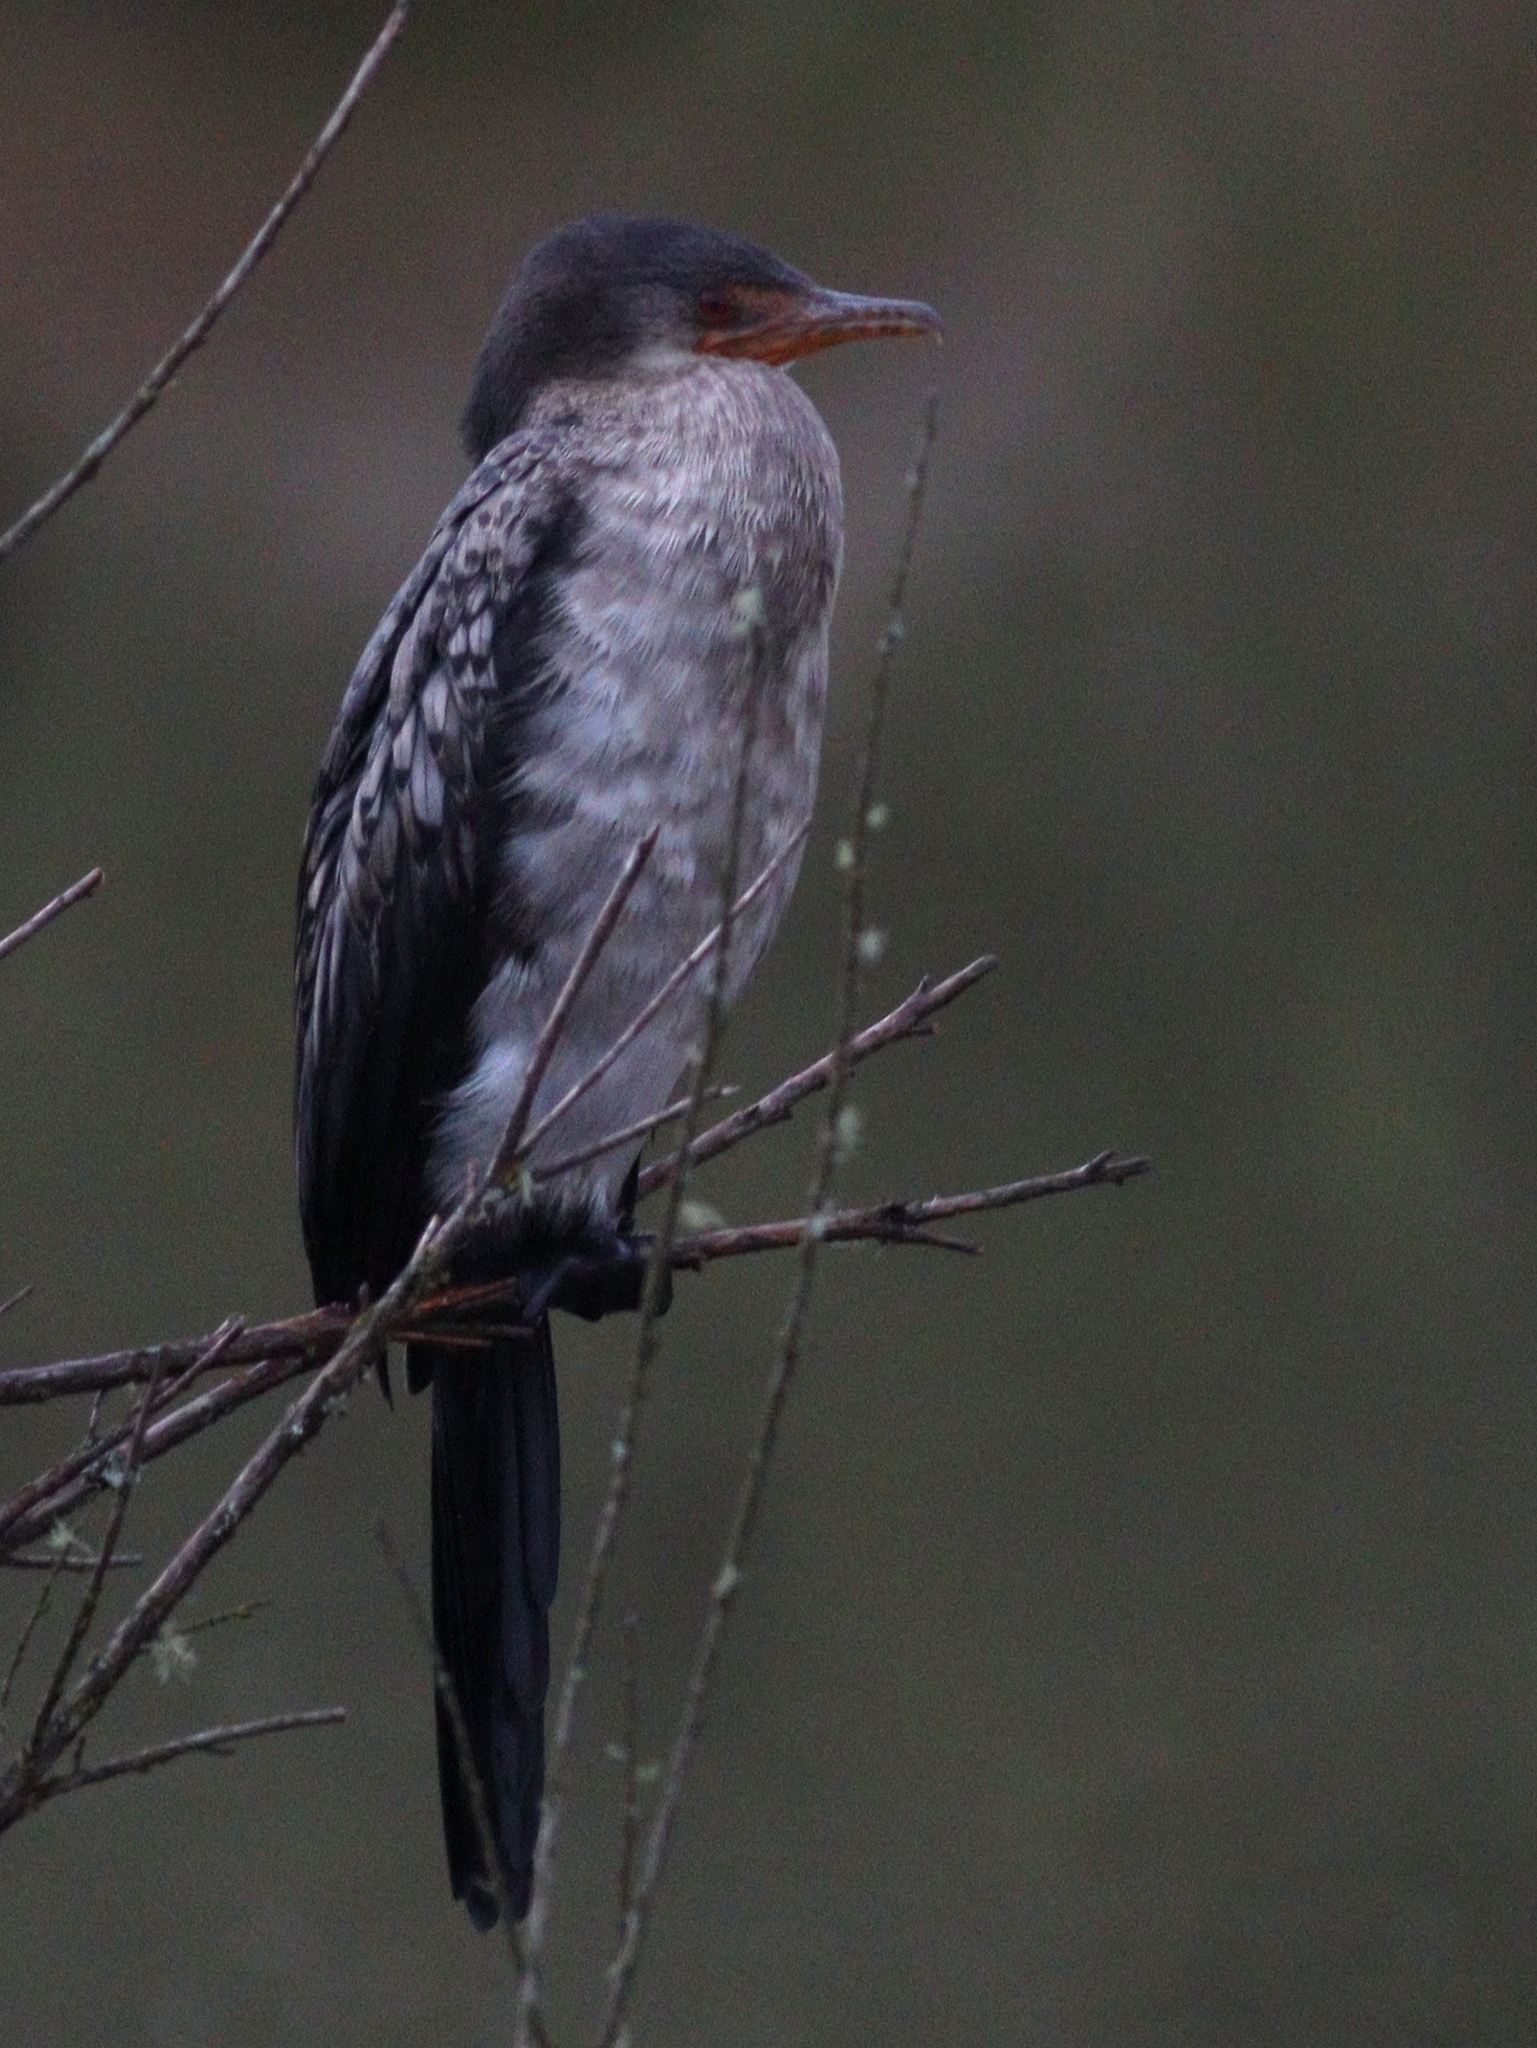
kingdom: Animalia
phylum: Chordata
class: Aves
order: Suliformes
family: Phalacrocoracidae
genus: Microcarbo
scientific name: Microcarbo africanus
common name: Long-tailed cormorant
